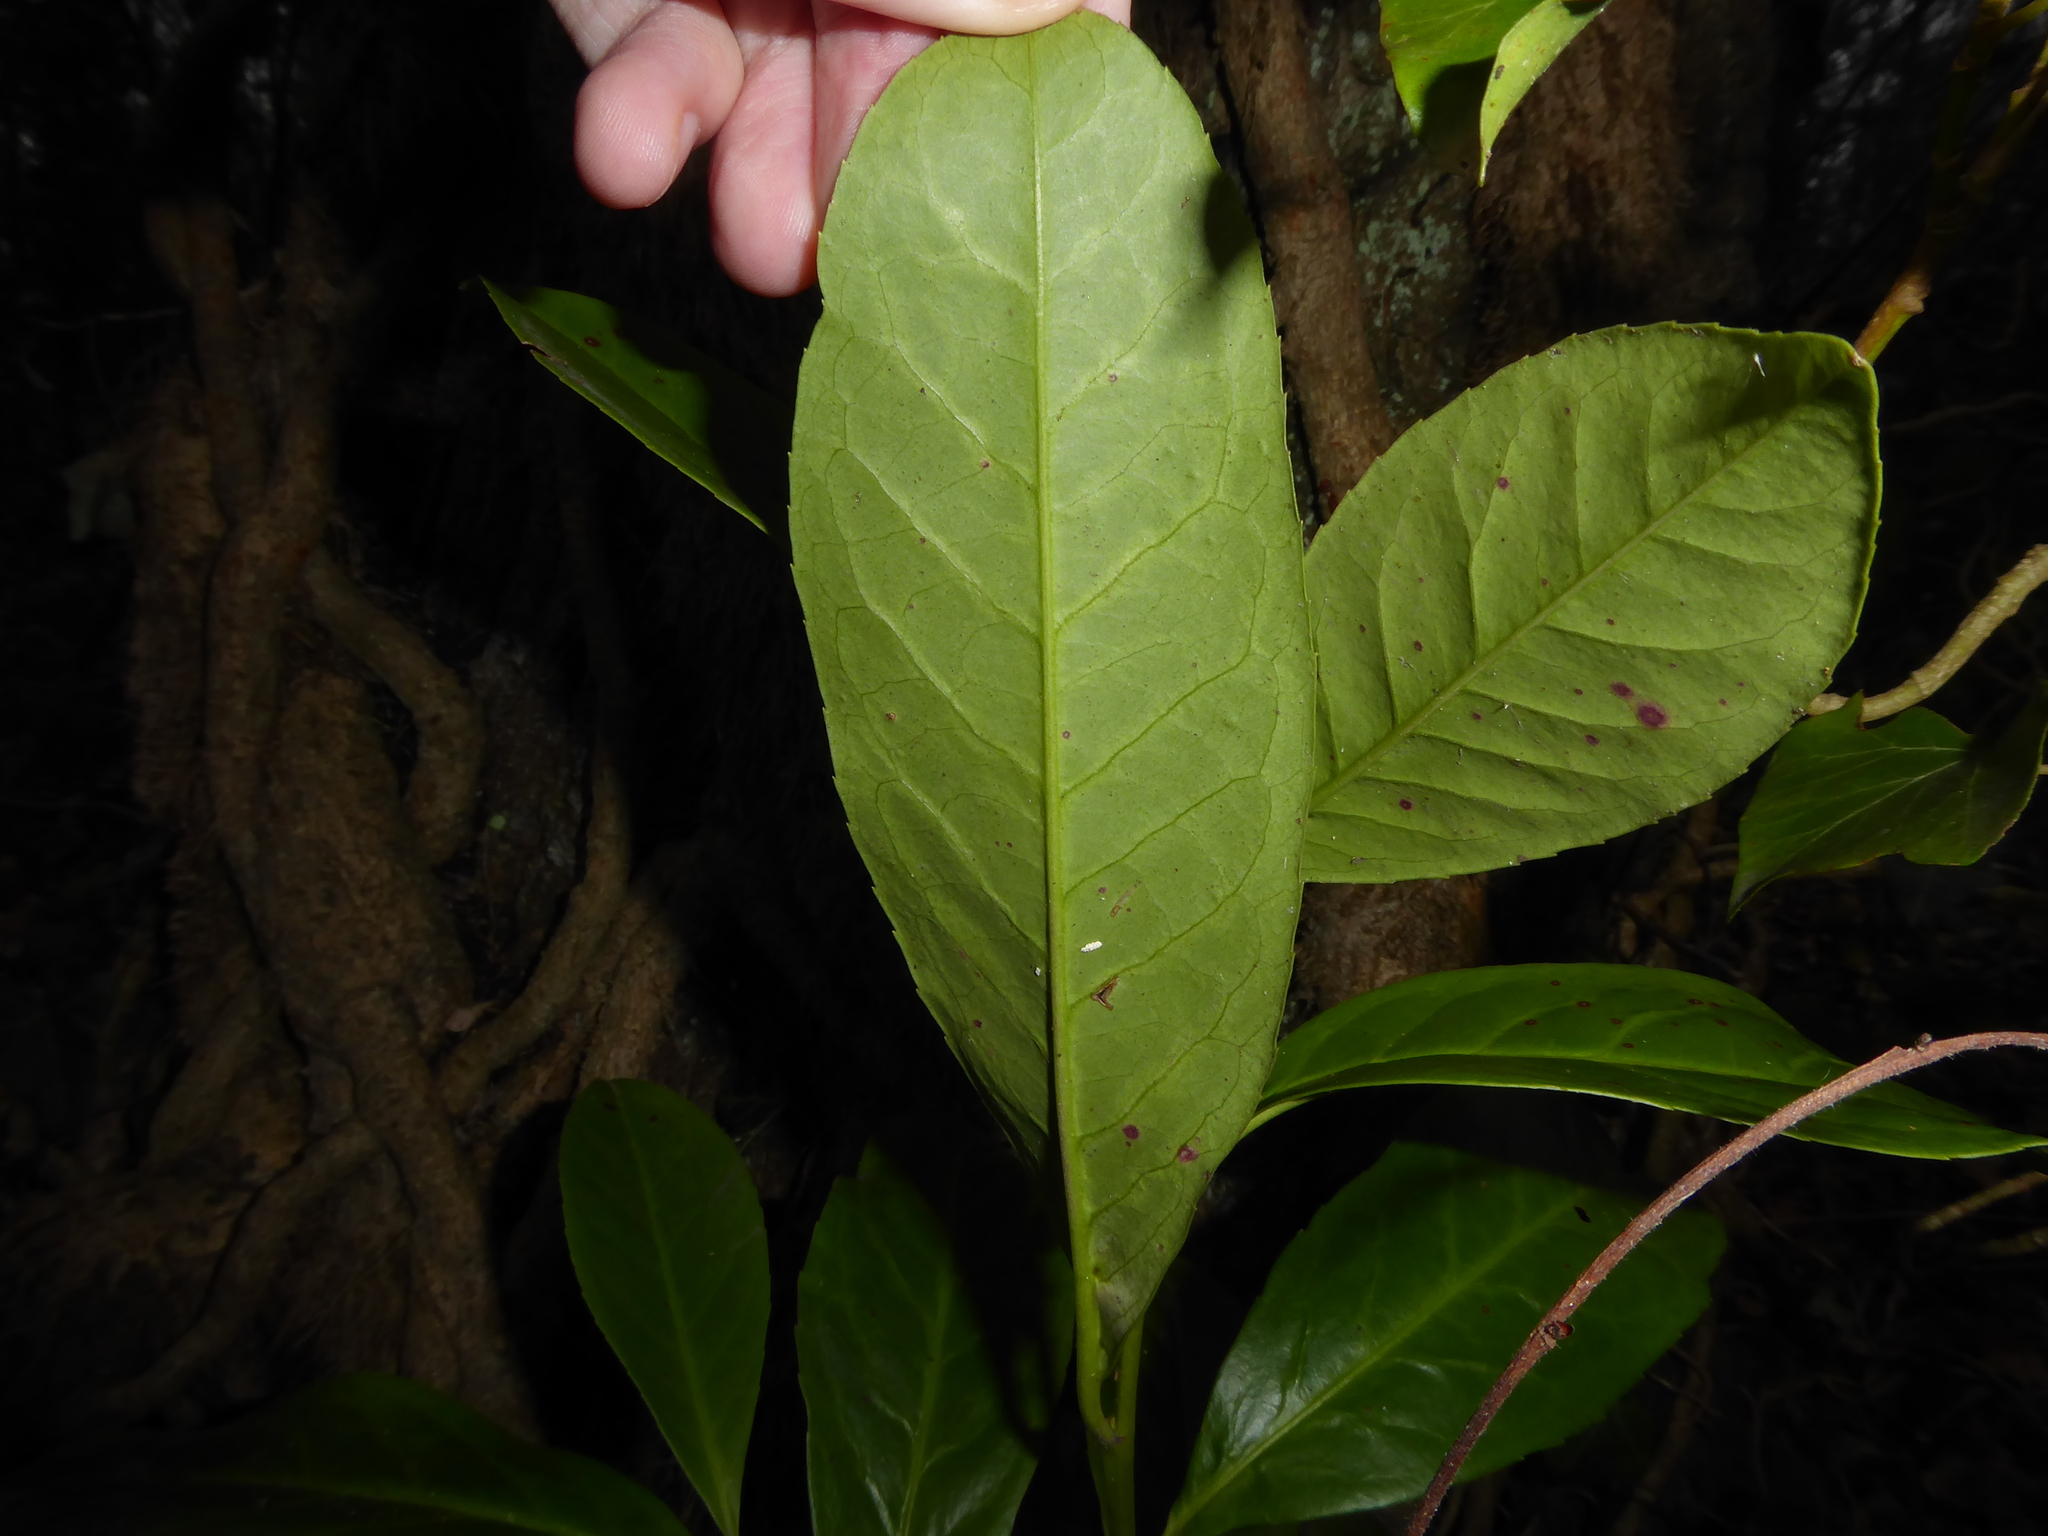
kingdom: Plantae
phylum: Tracheophyta
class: Magnoliopsida
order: Rosales
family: Rosaceae
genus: Prunus
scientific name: Prunus laurocerasus
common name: Cherry laurel
